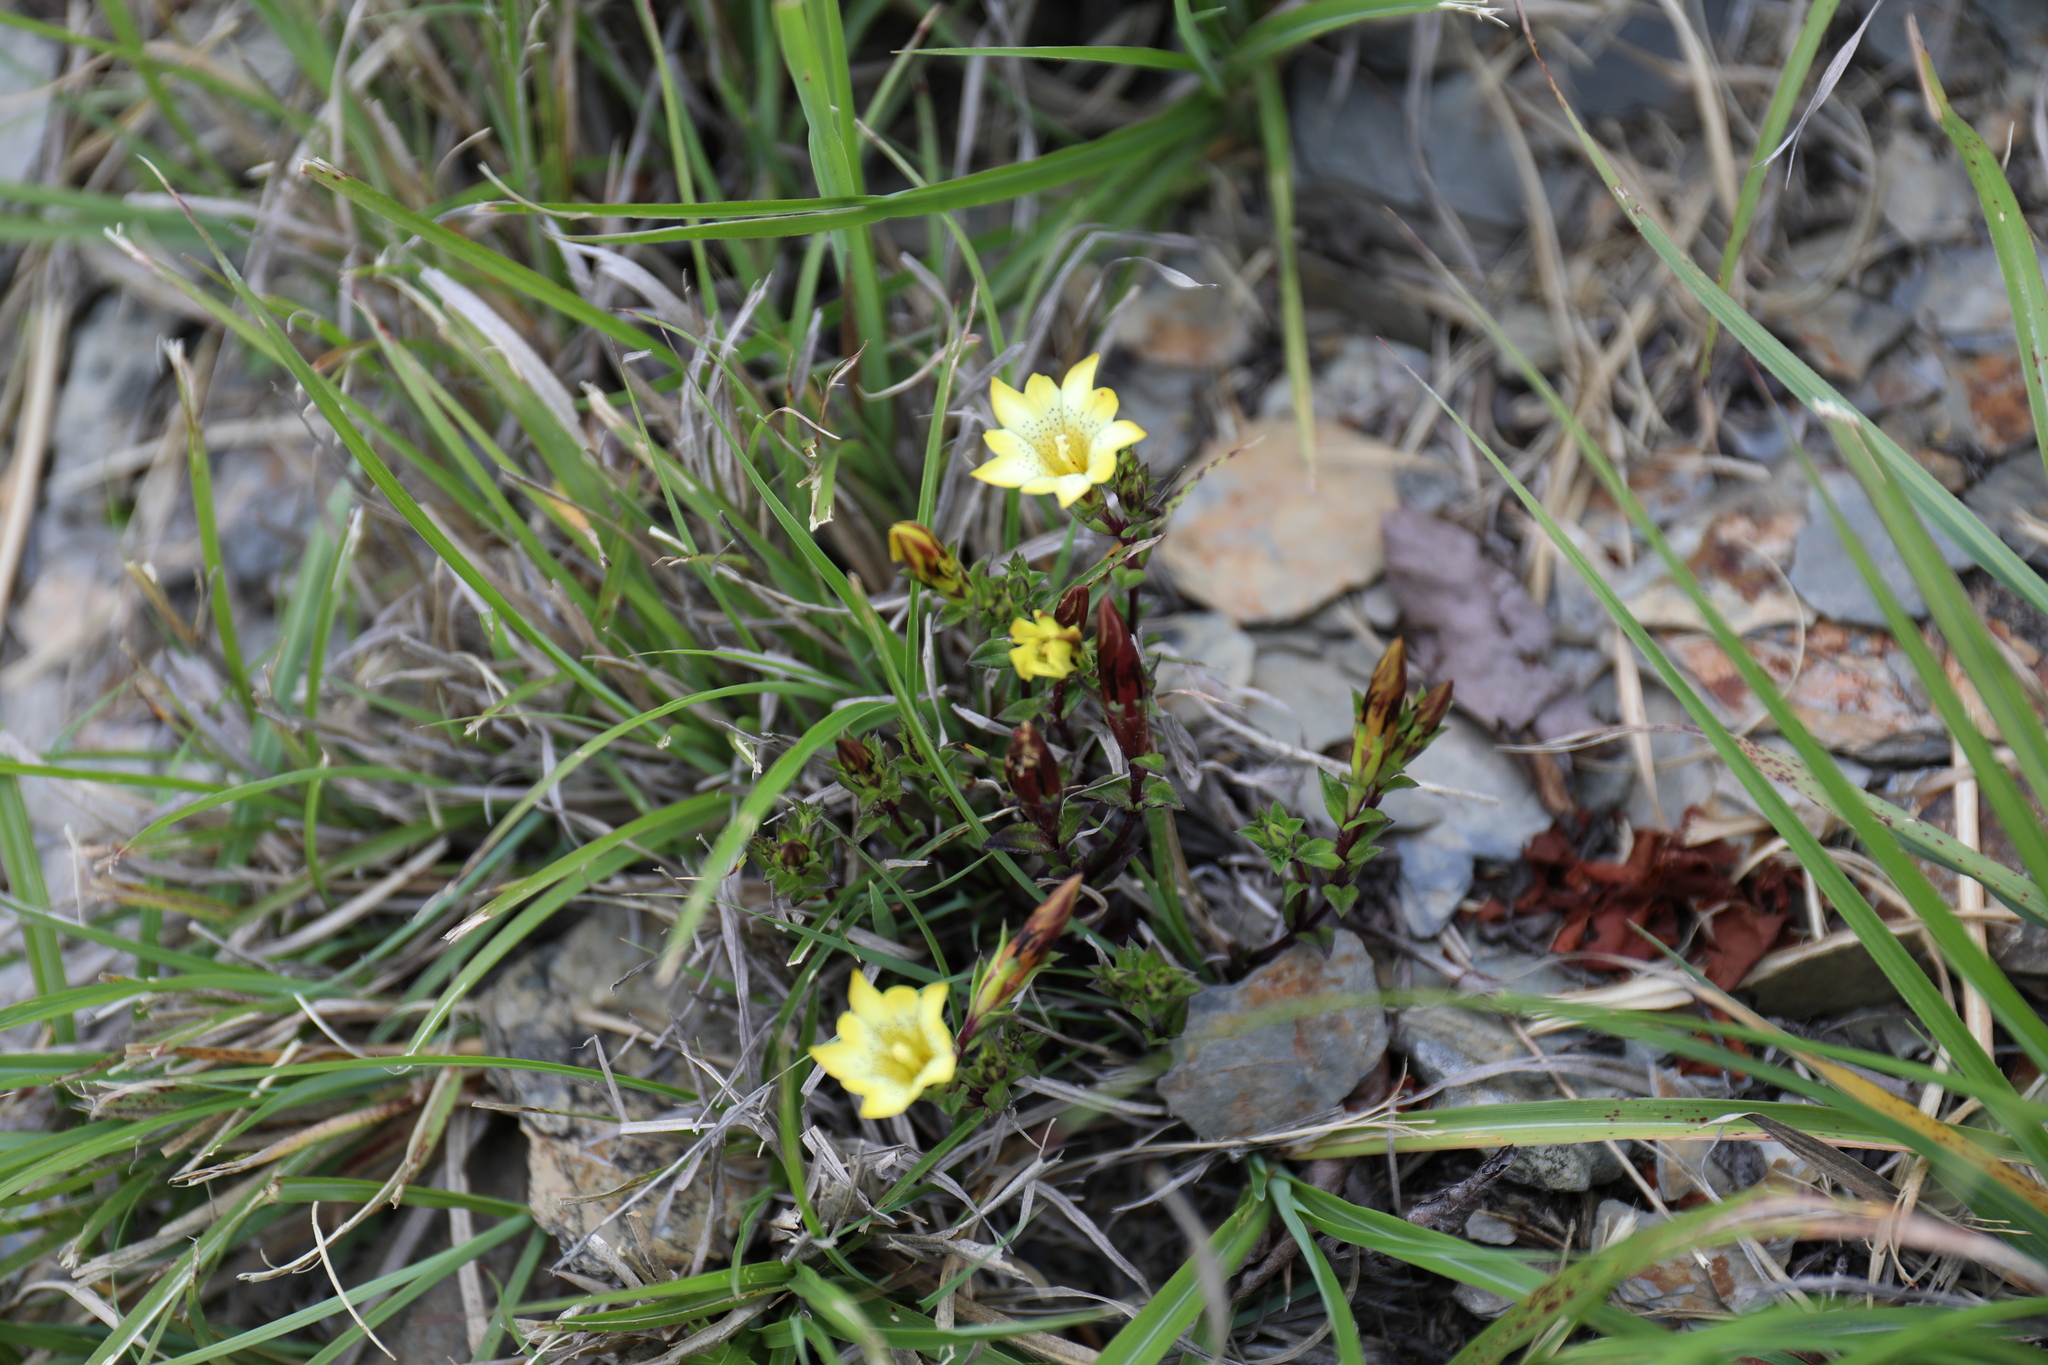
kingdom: Plantae
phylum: Tracheophyta
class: Magnoliopsida
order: Gentianales
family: Gentianaceae
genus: Gentiana
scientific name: Gentiana scabrida
